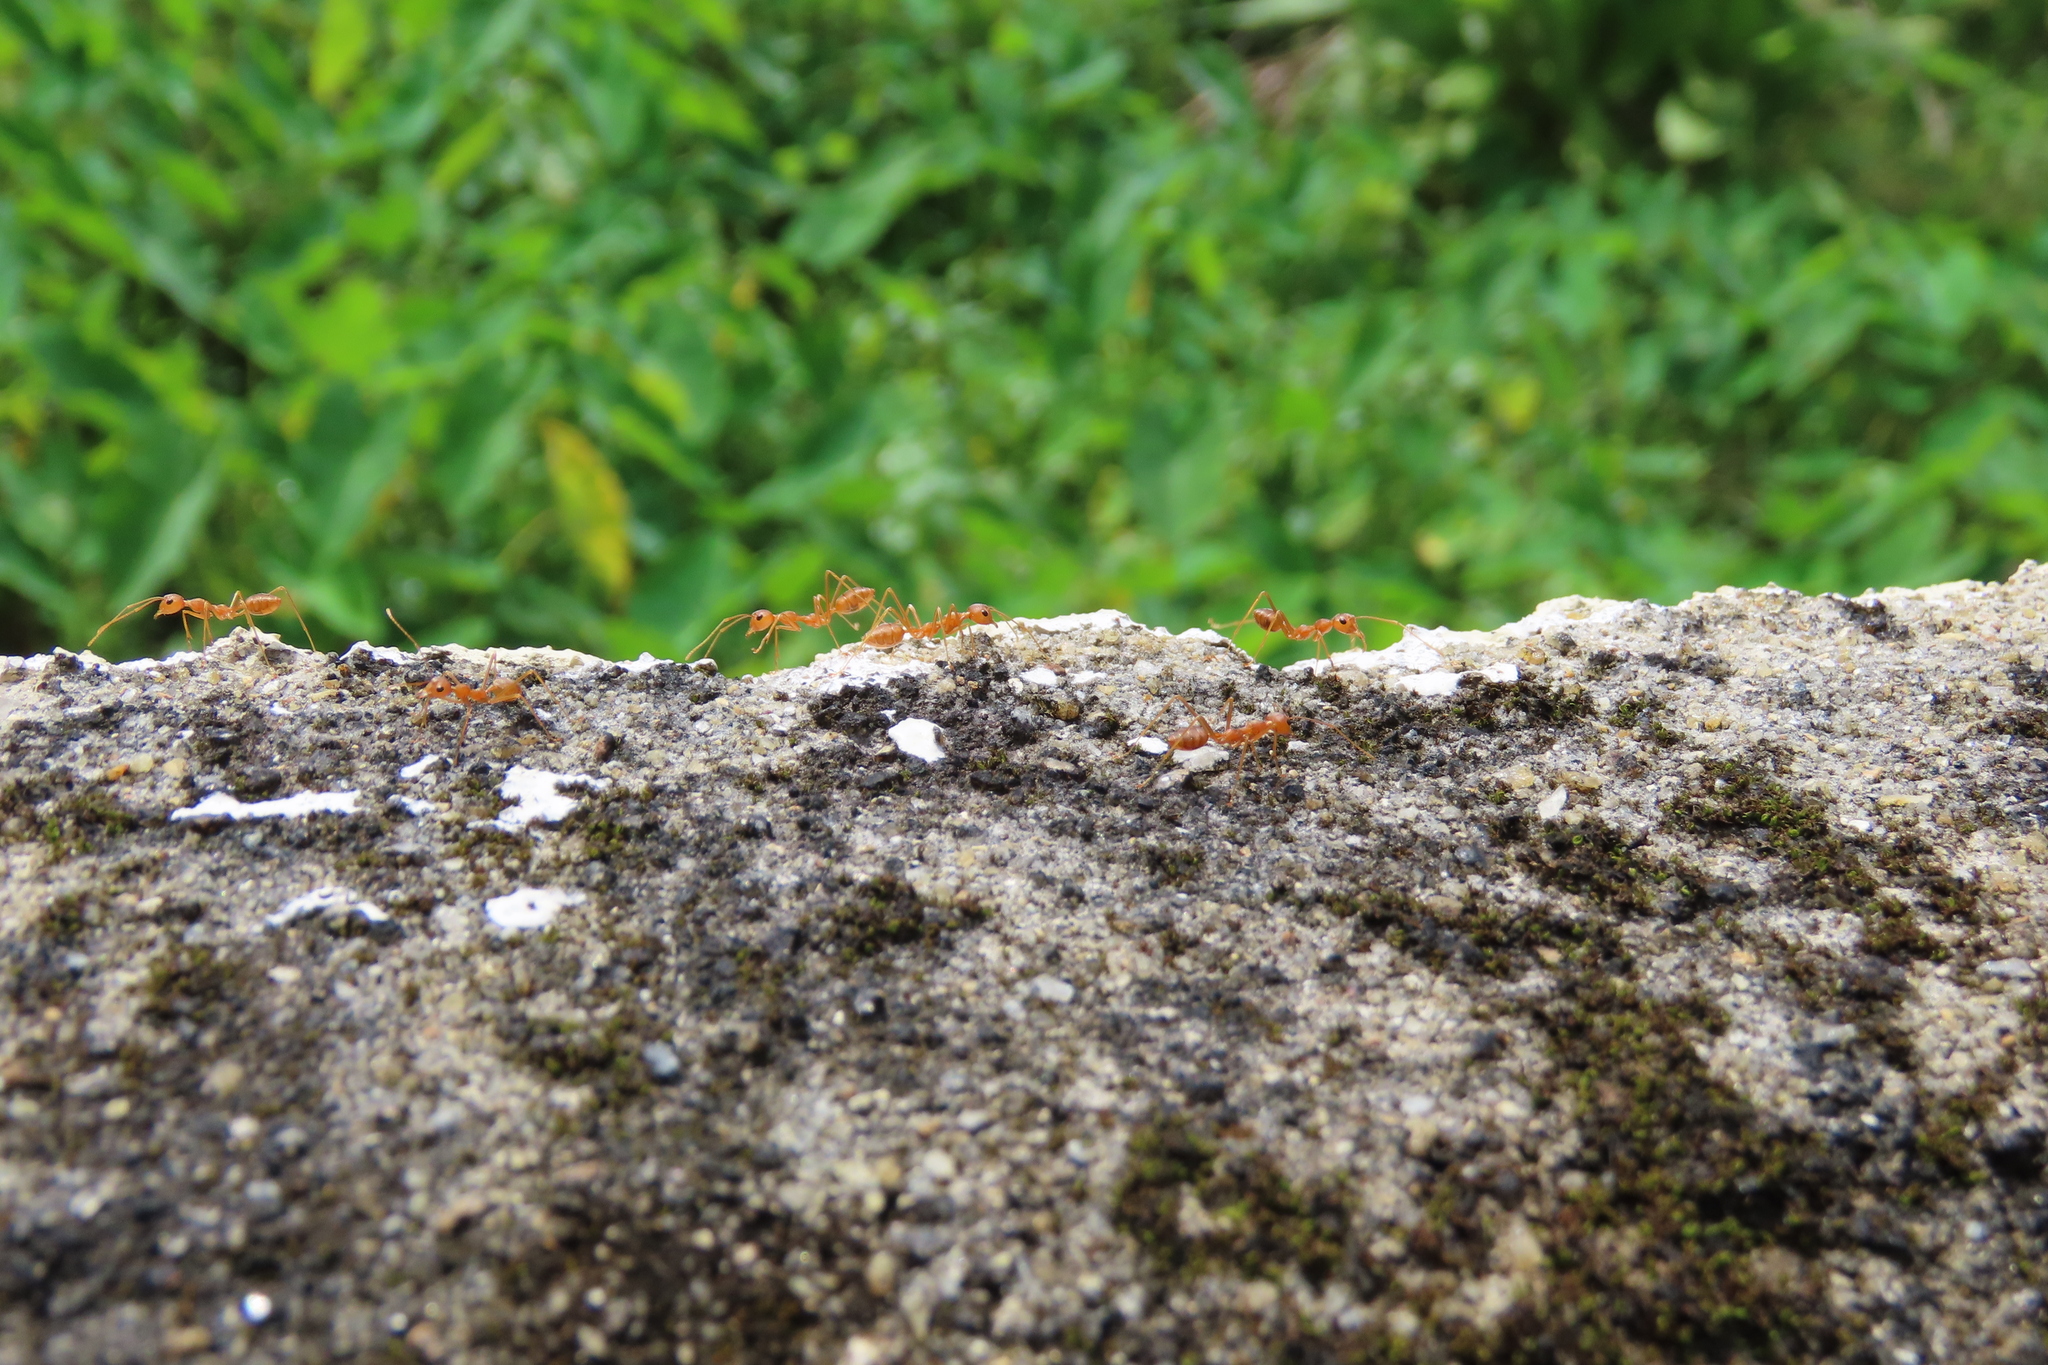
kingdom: Animalia
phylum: Arthropoda
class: Insecta
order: Hymenoptera
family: Formicidae
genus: Oecophylla
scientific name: Oecophylla smaragdina
